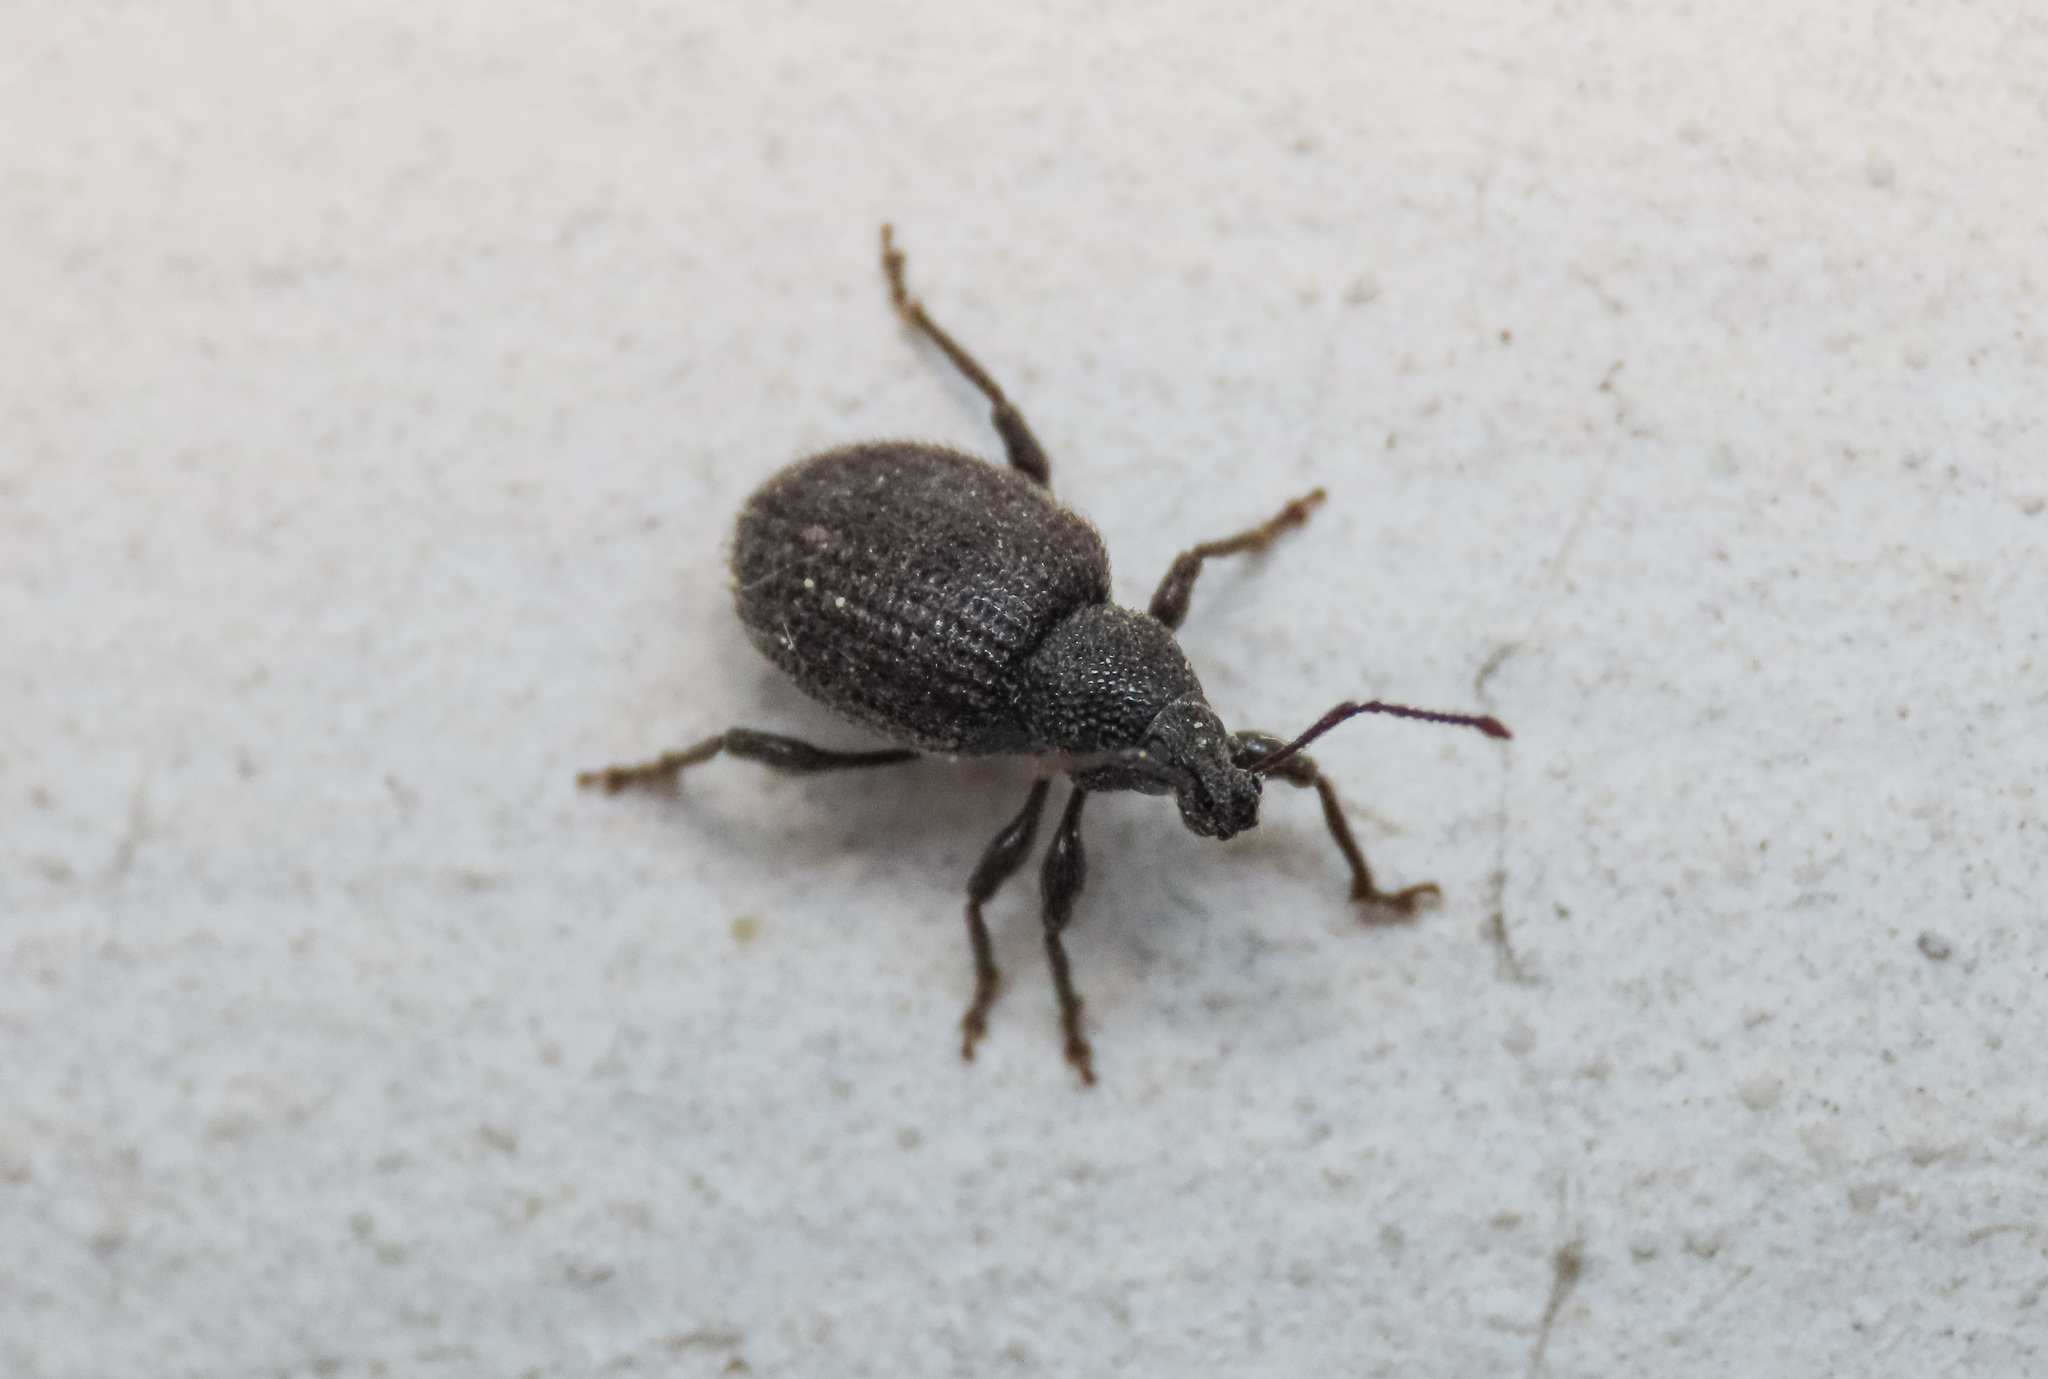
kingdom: Animalia
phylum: Arthropoda
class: Insecta
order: Coleoptera
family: Curculionidae
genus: Otiorhynchus
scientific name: Otiorhynchus rugosostriatus
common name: Weevil
